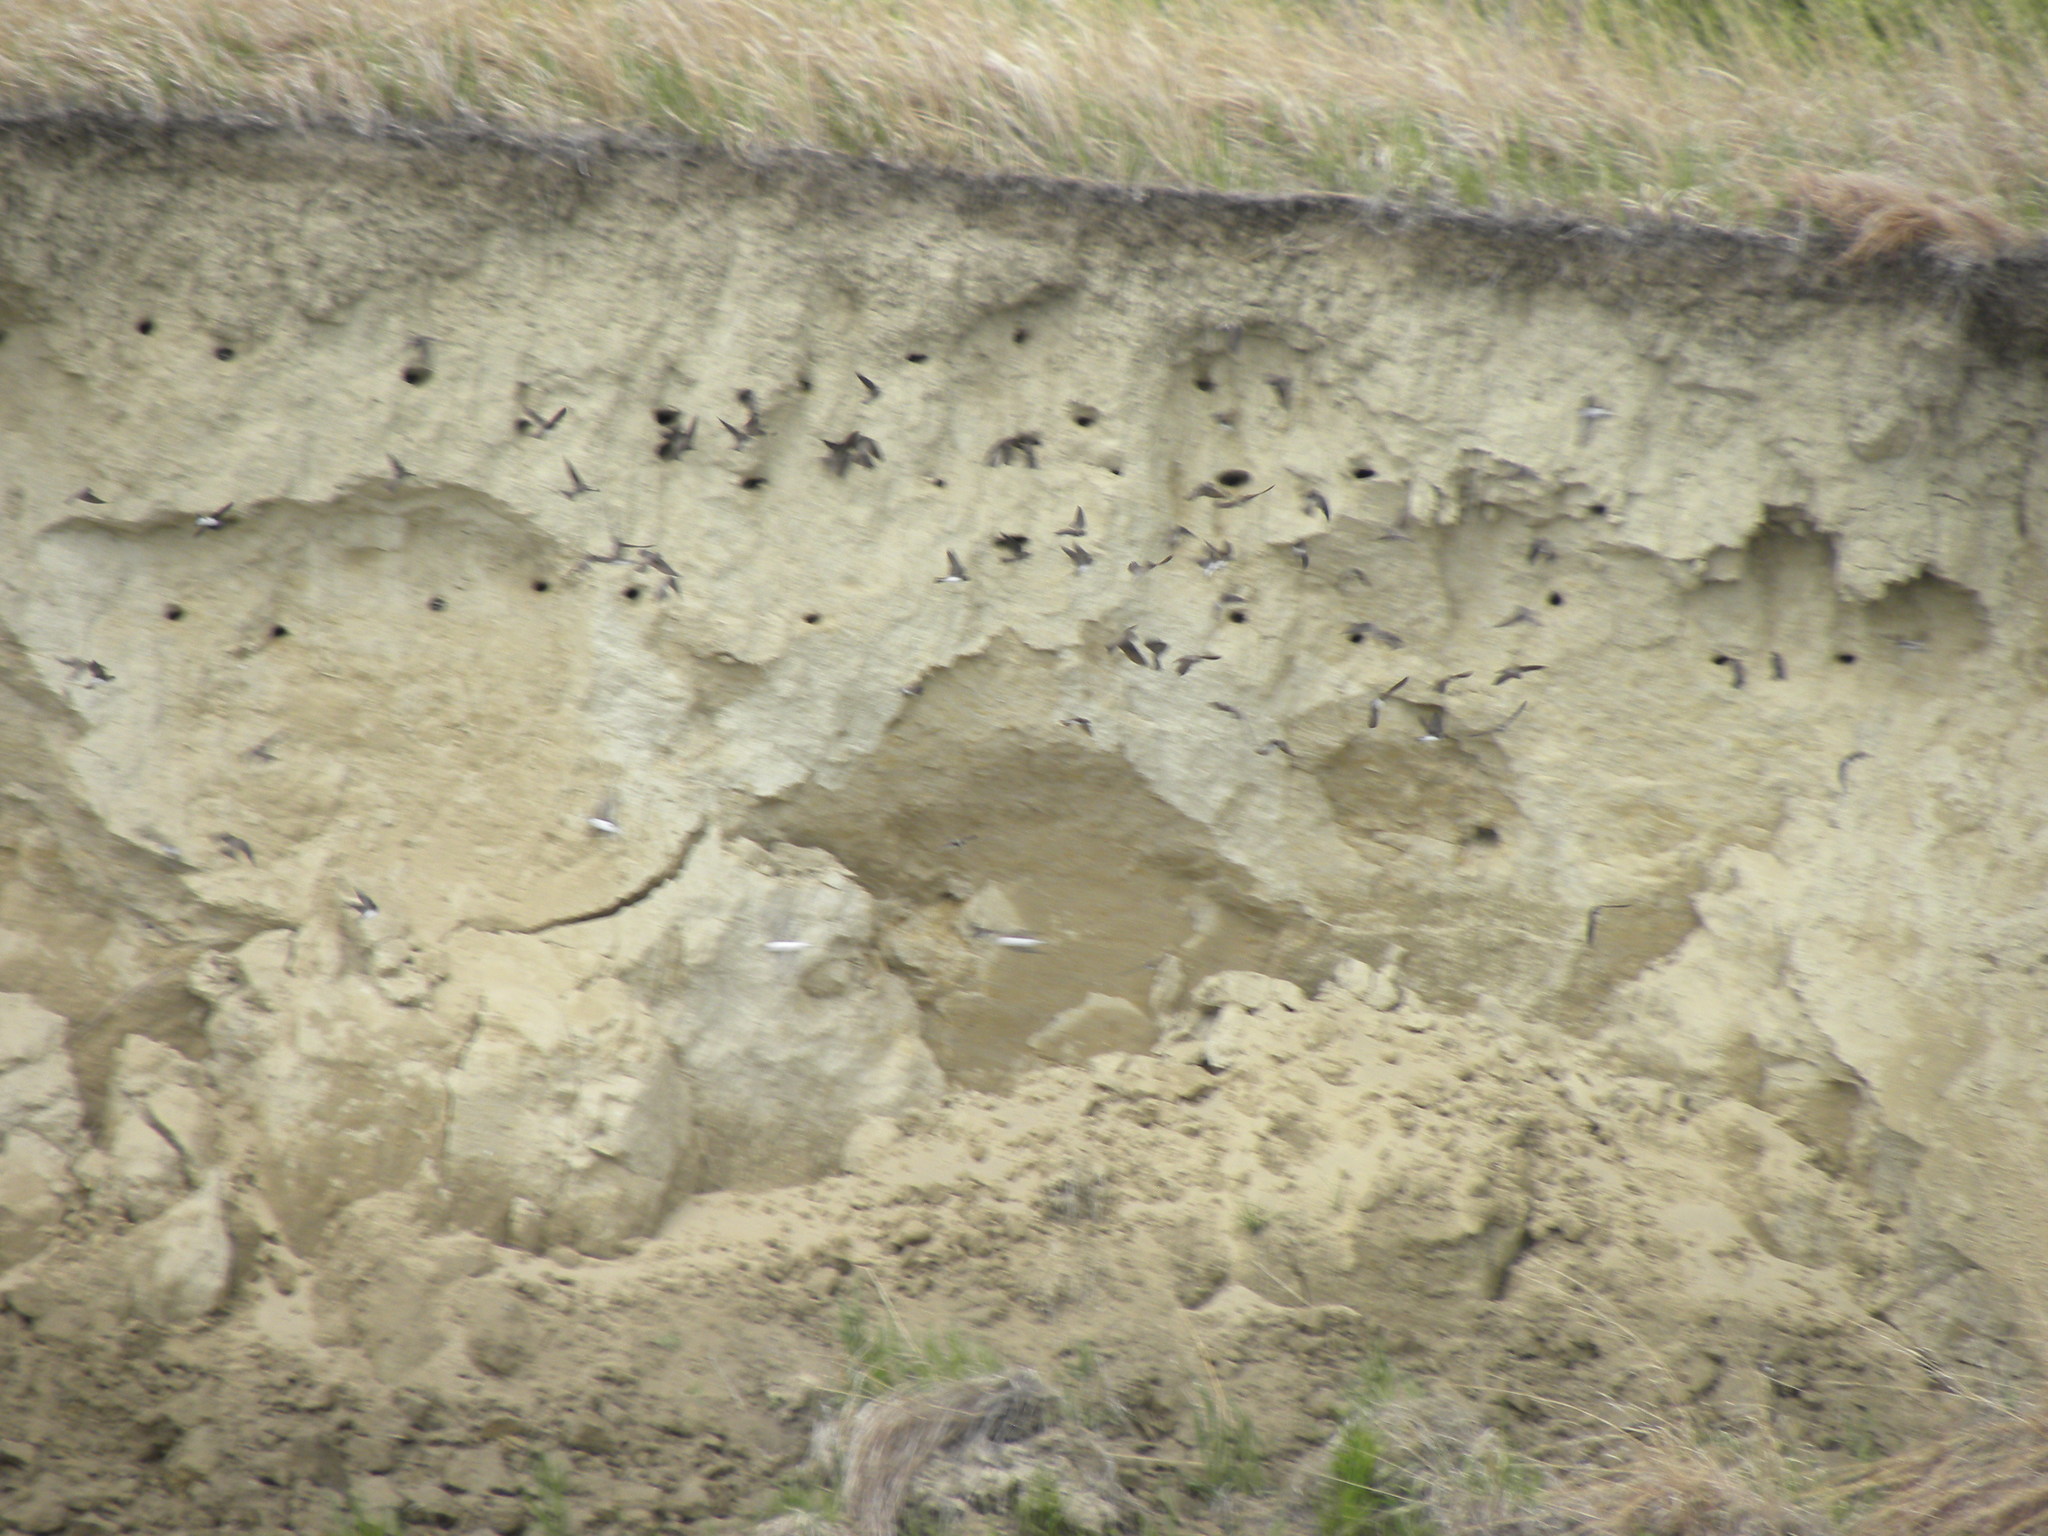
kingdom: Animalia
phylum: Chordata
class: Aves
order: Passeriformes
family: Hirundinidae
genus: Riparia
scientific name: Riparia riparia
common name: Sand martin
